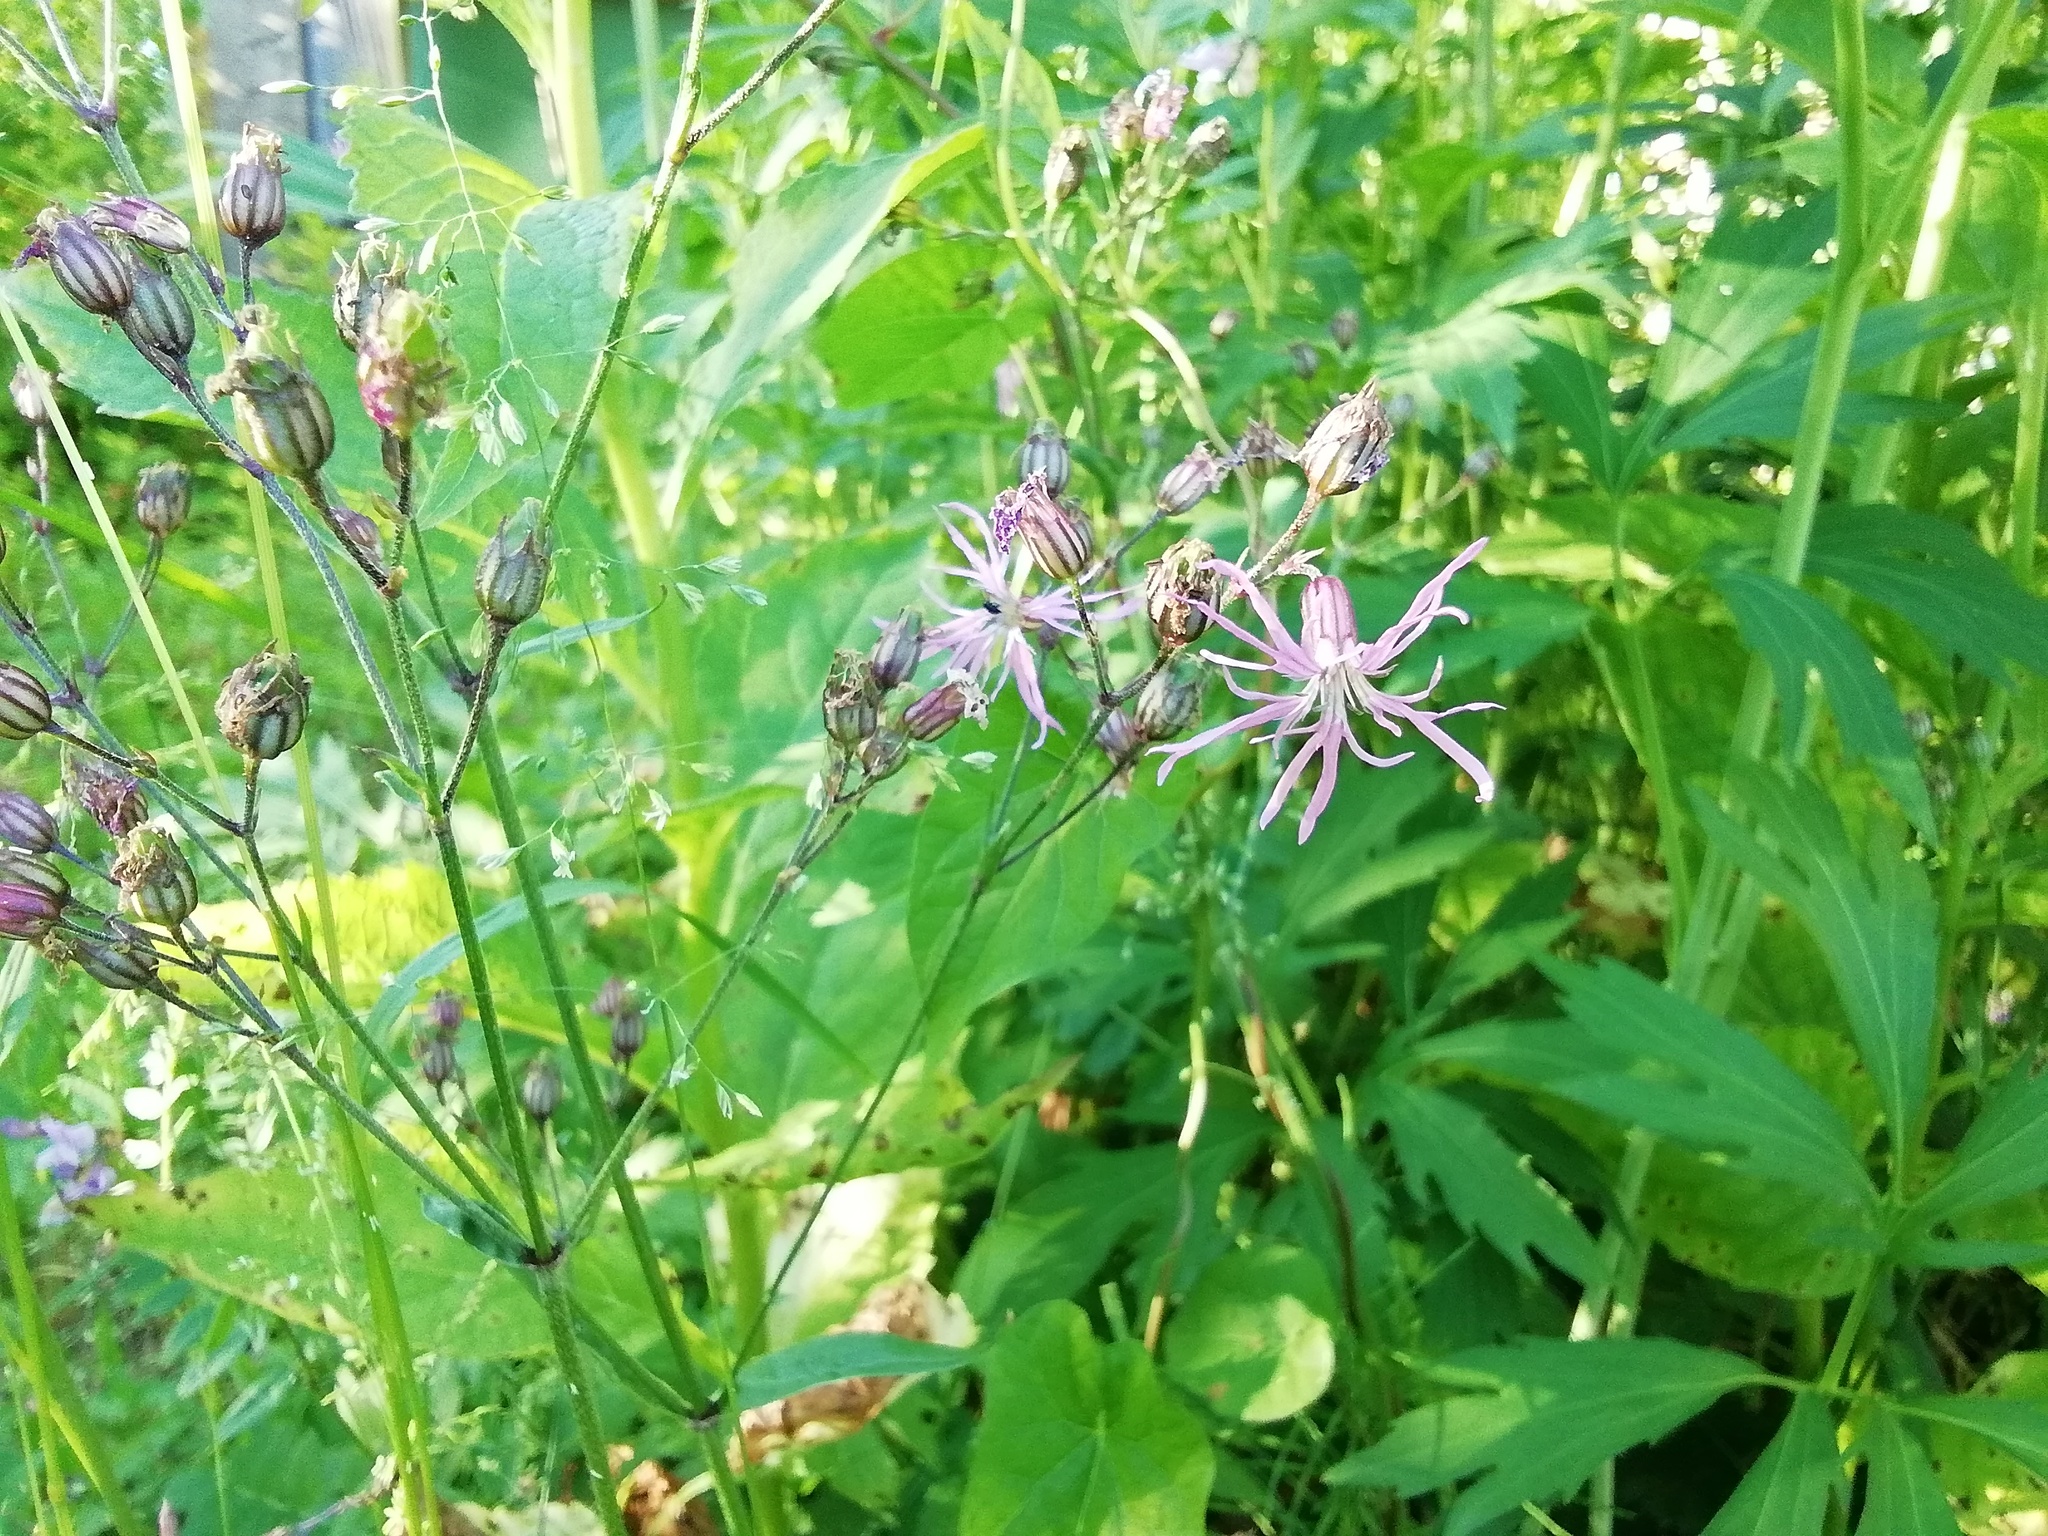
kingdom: Plantae
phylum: Tracheophyta
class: Magnoliopsida
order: Caryophyllales
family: Caryophyllaceae
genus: Silene
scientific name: Silene flos-cuculi
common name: Ragged-robin
